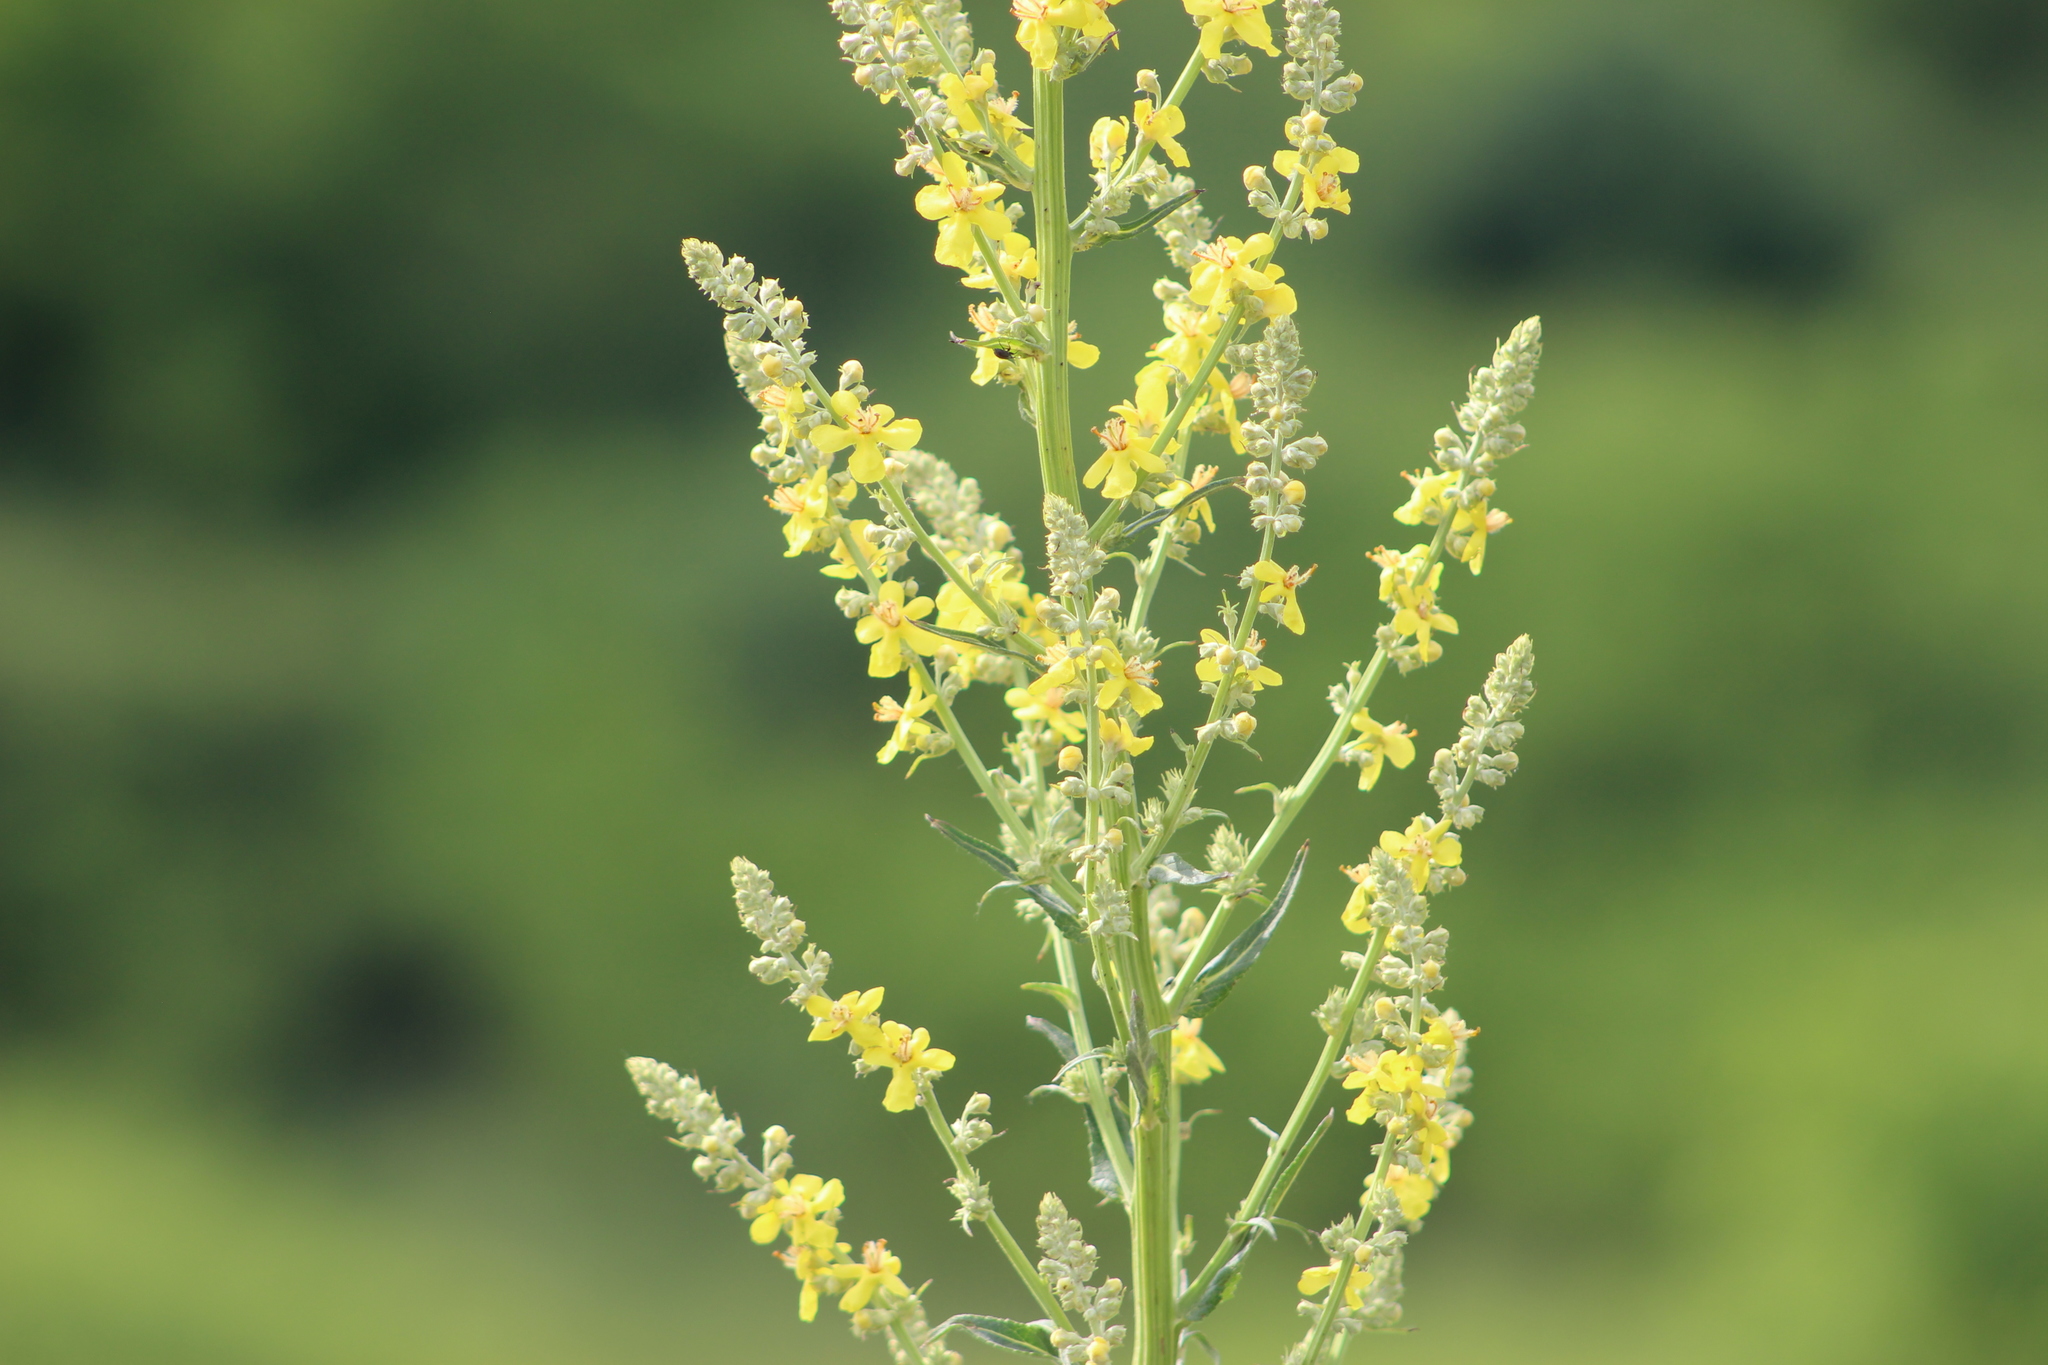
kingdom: Plantae
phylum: Tracheophyta
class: Magnoliopsida
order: Lamiales
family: Scrophulariaceae
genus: Verbascum
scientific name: Verbascum lychnitis
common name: White mullein
